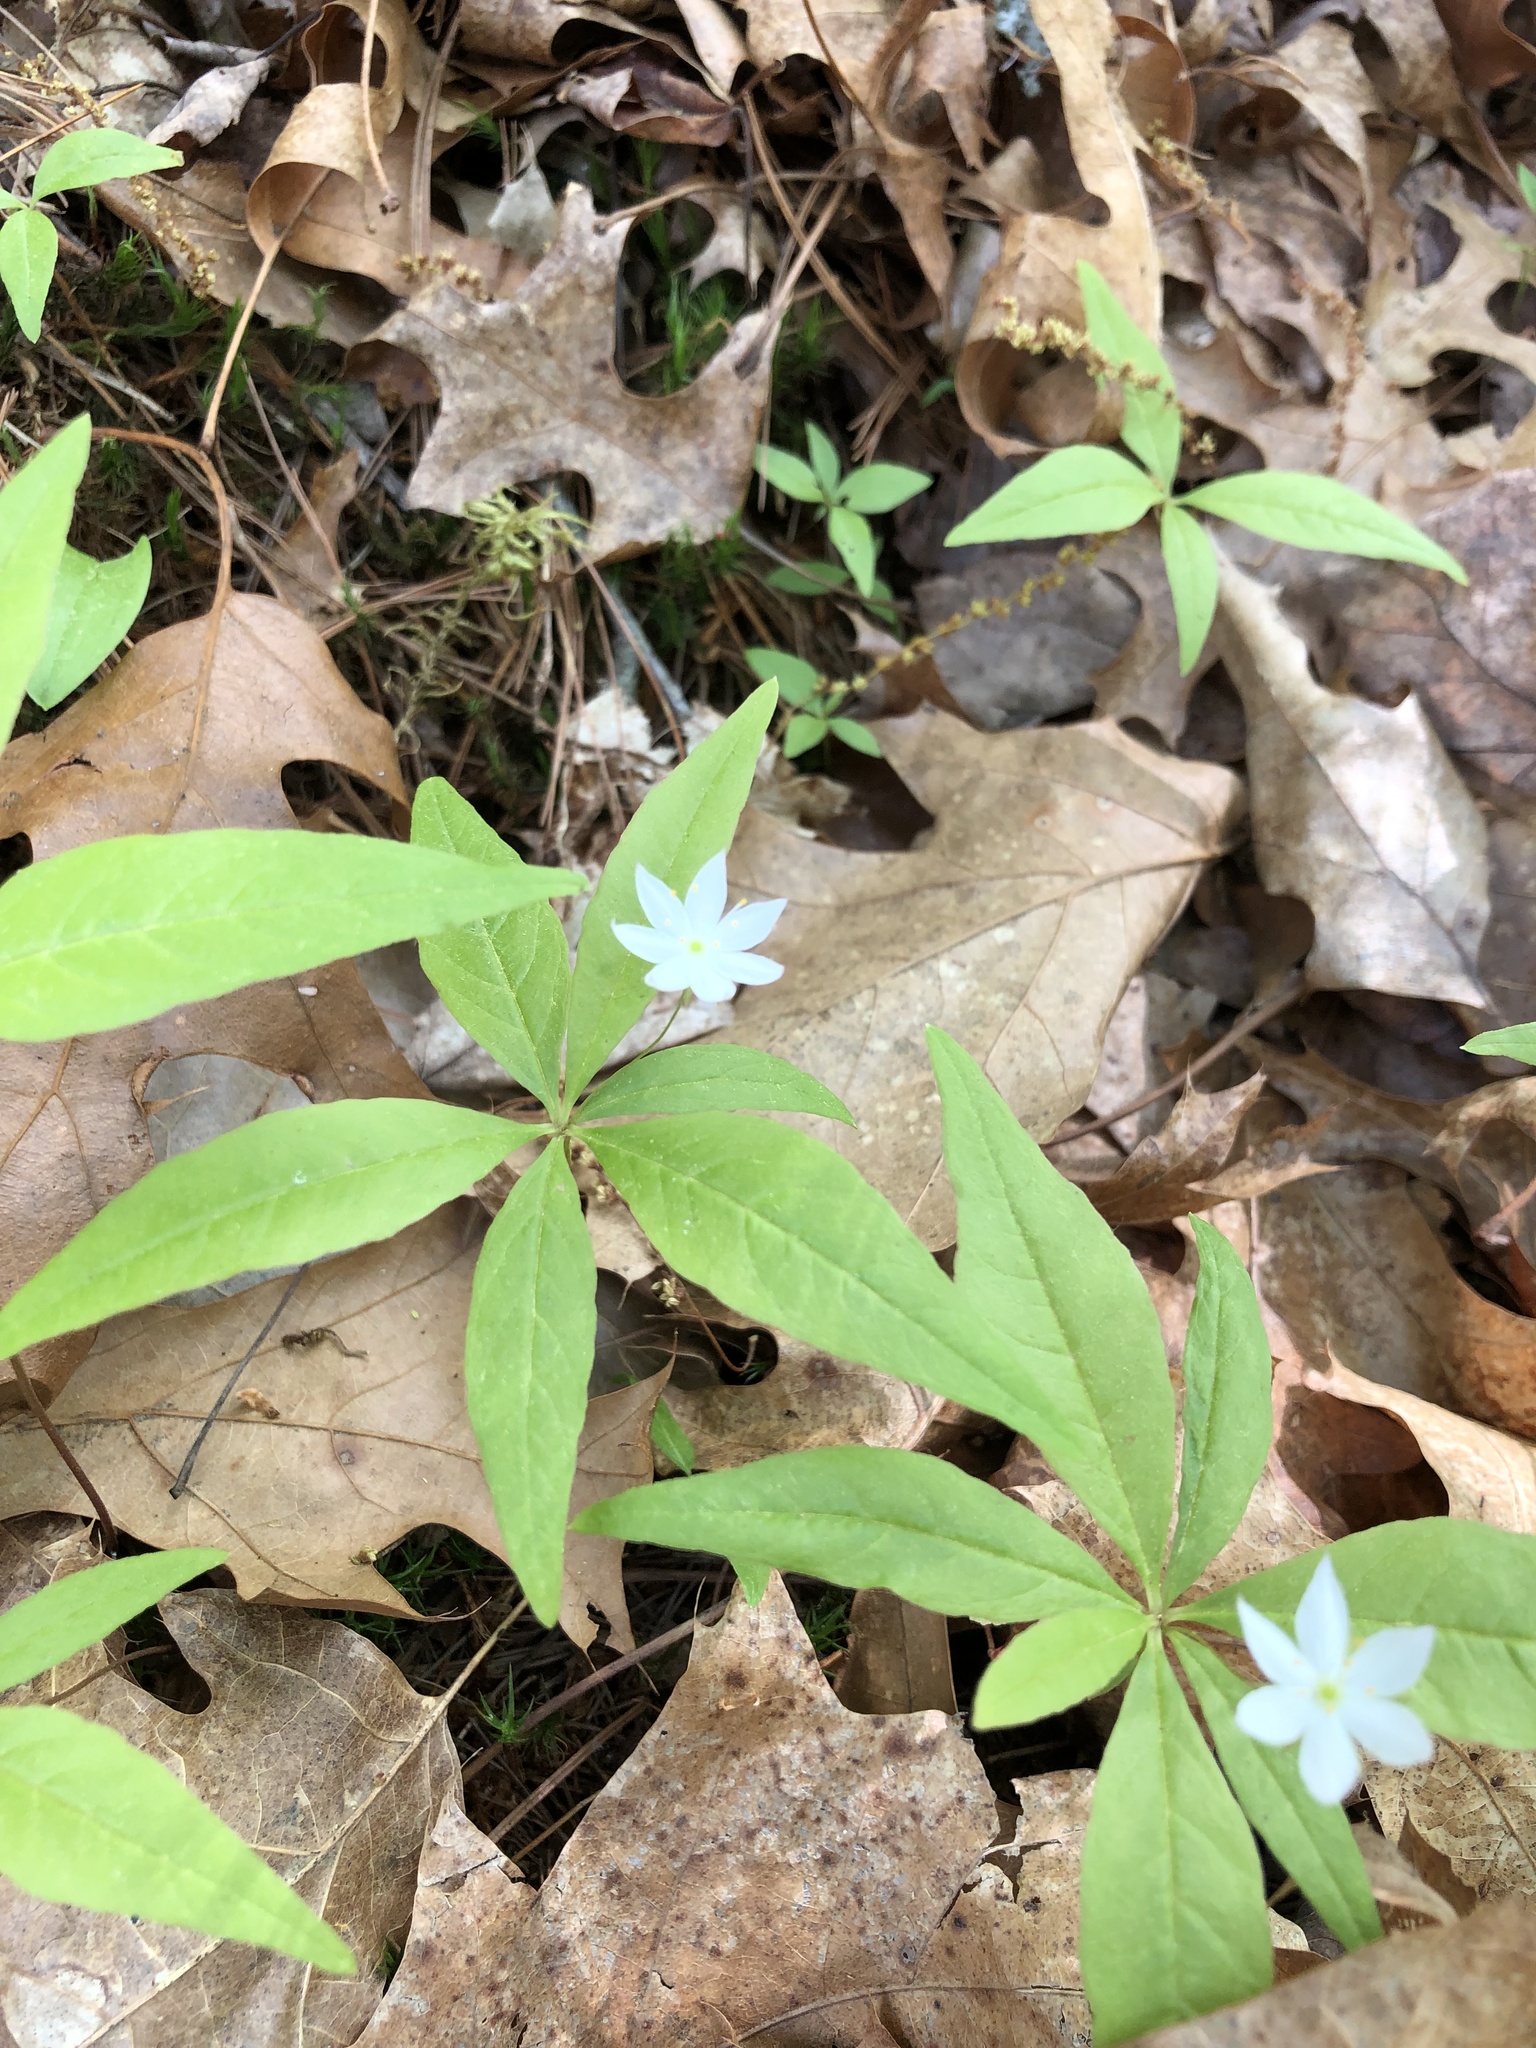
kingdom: Plantae
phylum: Tracheophyta
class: Magnoliopsida
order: Ericales
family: Primulaceae
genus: Lysimachia
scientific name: Lysimachia borealis
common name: American starflower
